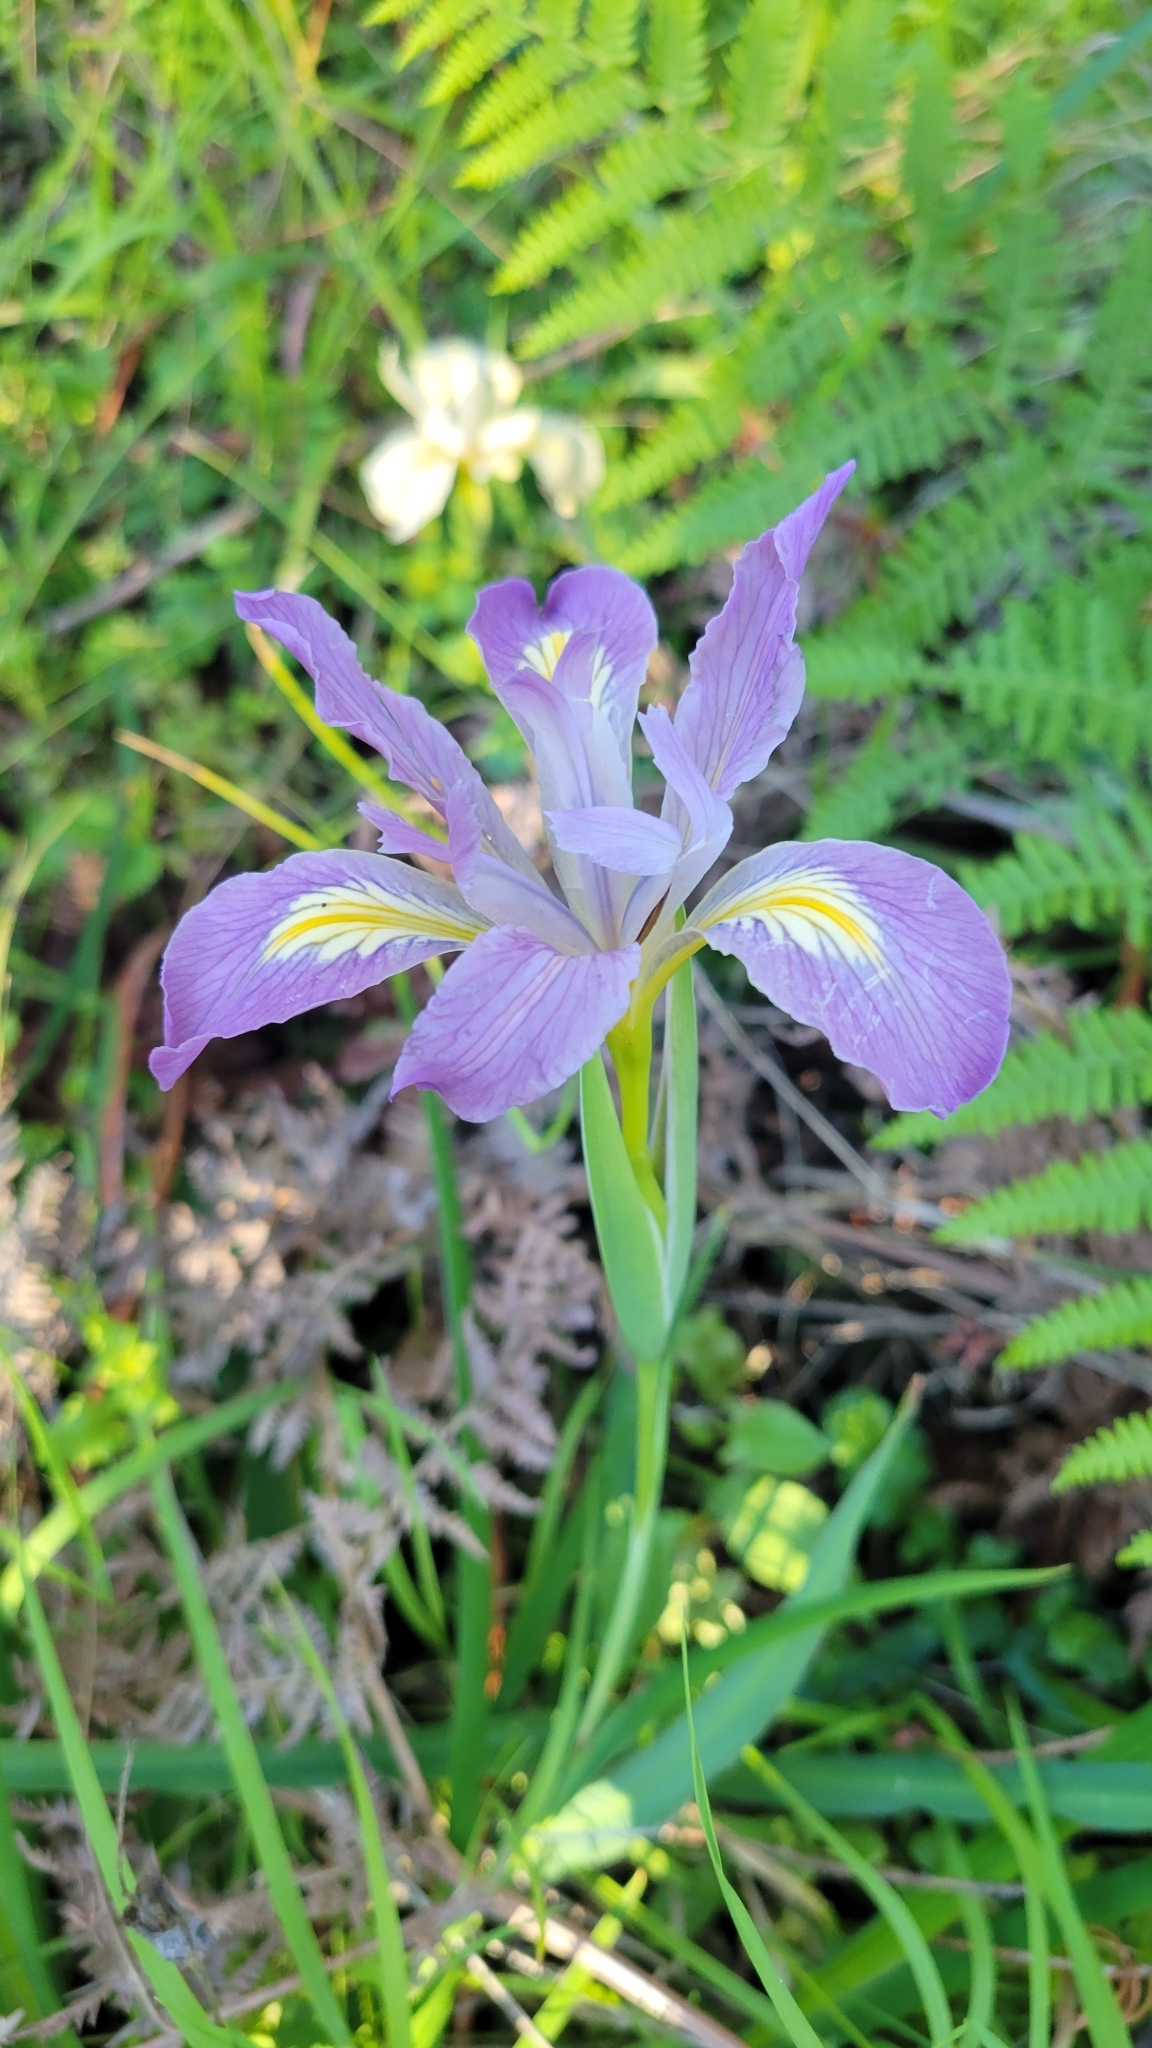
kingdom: Plantae
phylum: Tracheophyta
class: Liliopsida
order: Asparagales
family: Iridaceae
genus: Iris
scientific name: Iris douglasiana
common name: Marin iris
